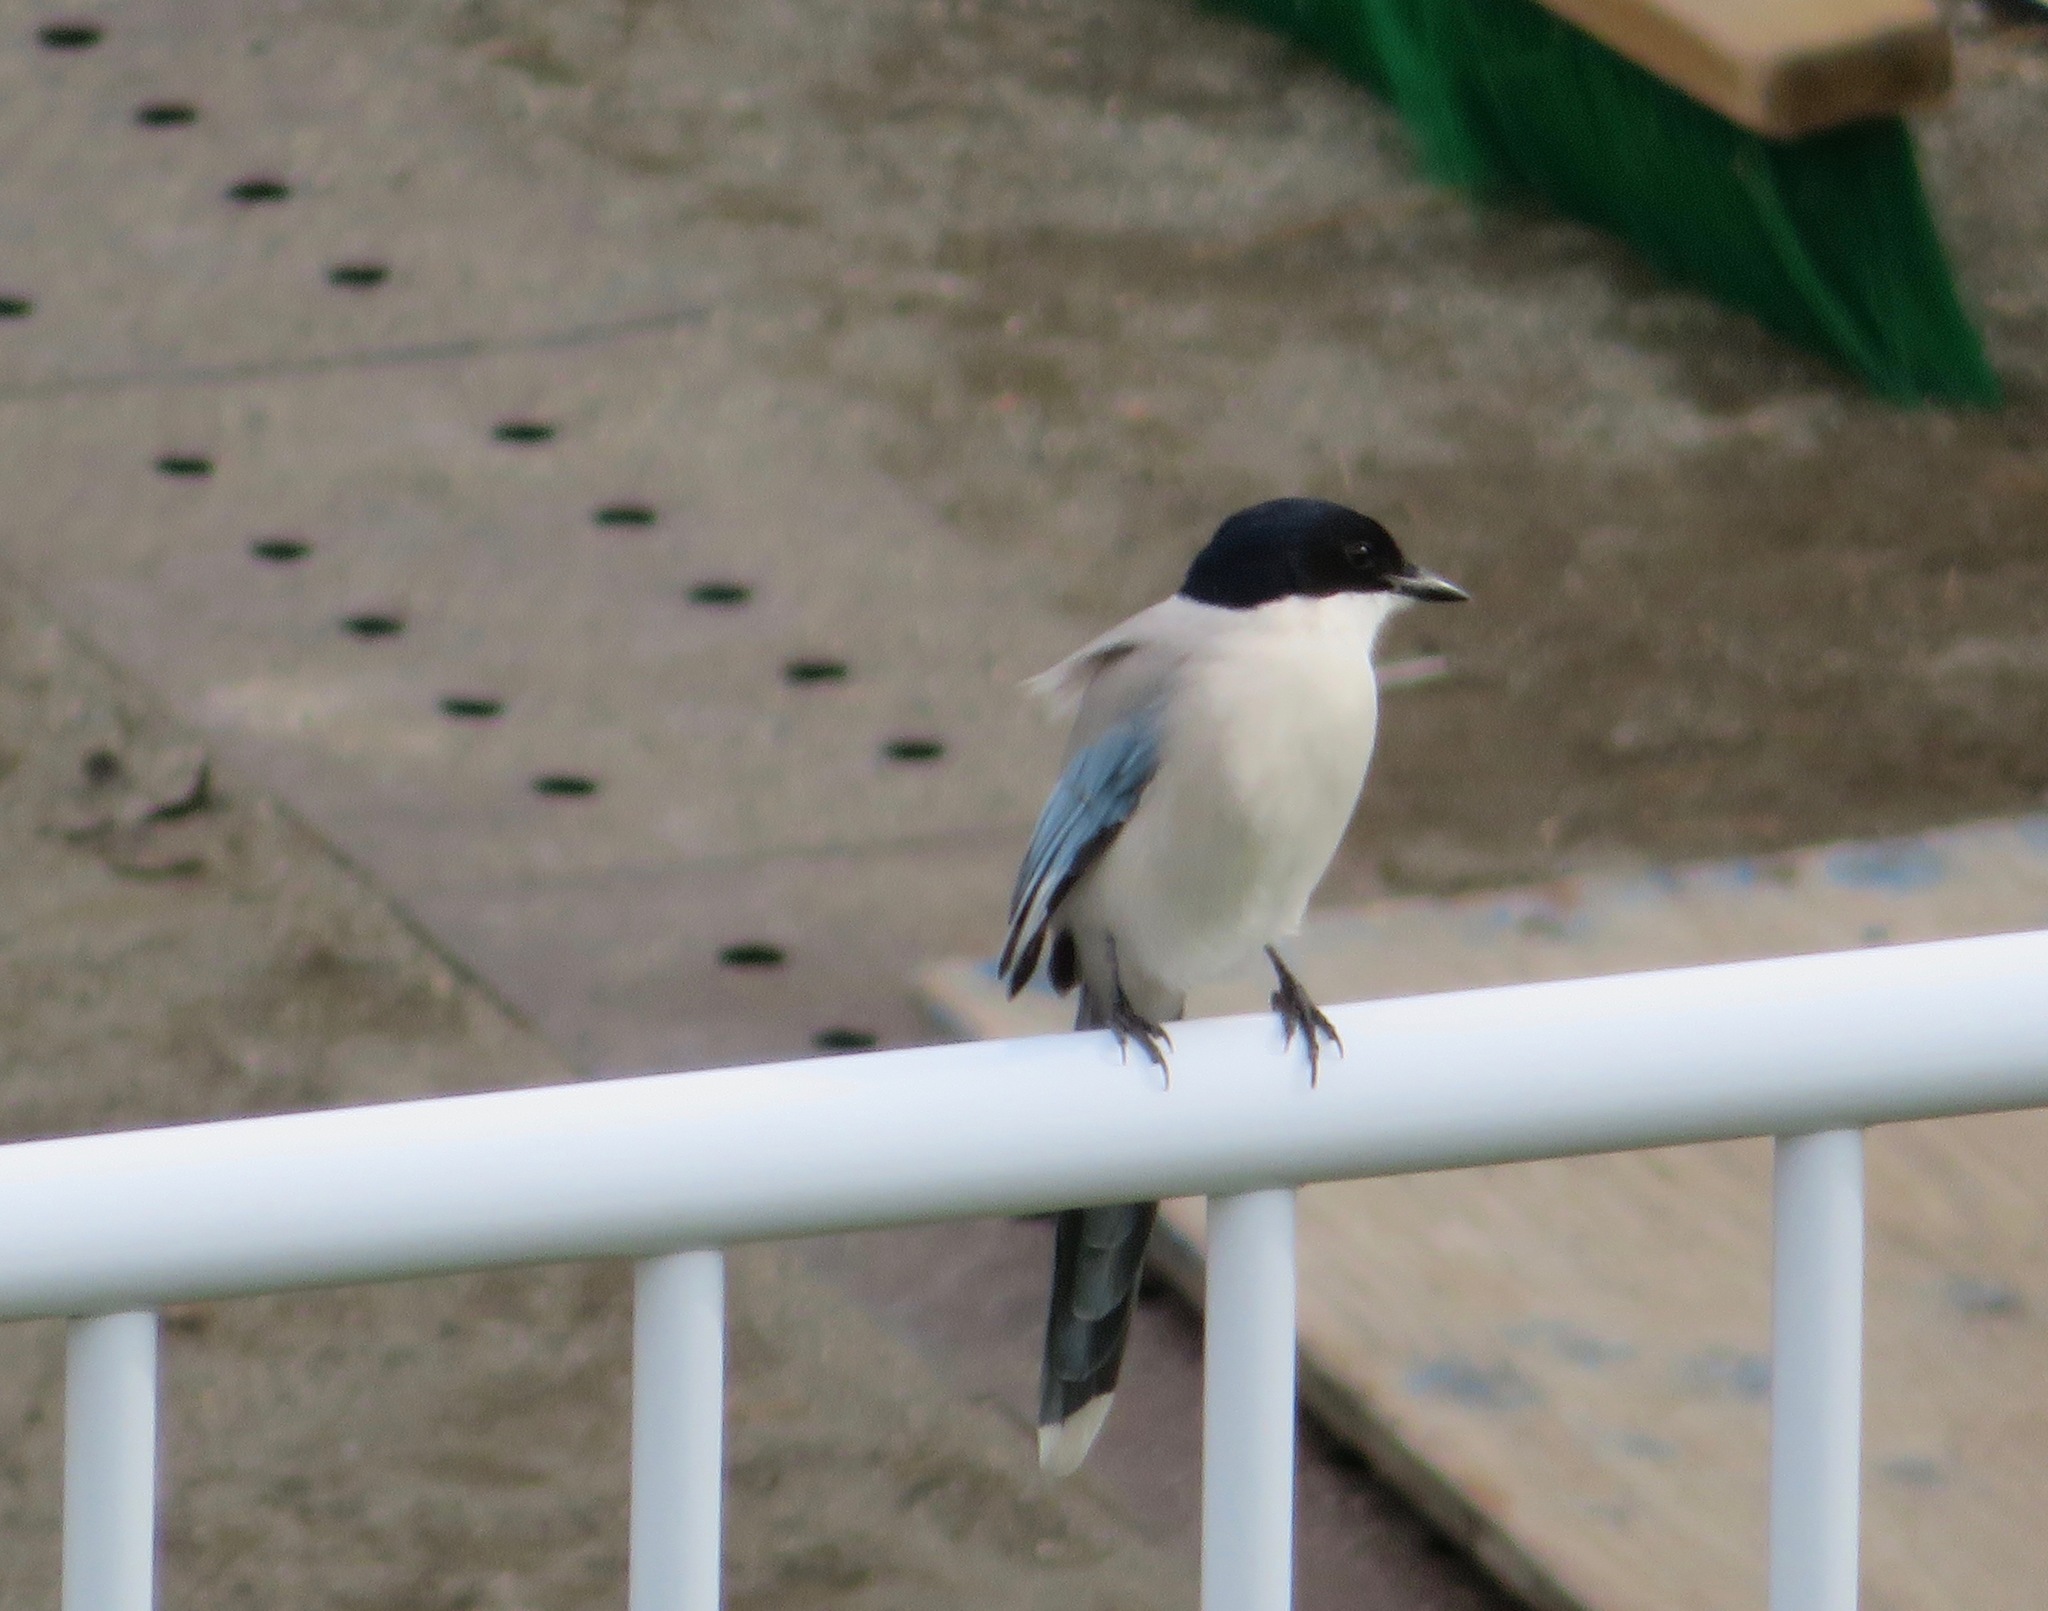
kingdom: Animalia
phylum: Chordata
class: Aves
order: Passeriformes
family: Corvidae
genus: Cyanopica
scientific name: Cyanopica cyanus
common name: Azure-winged magpie
